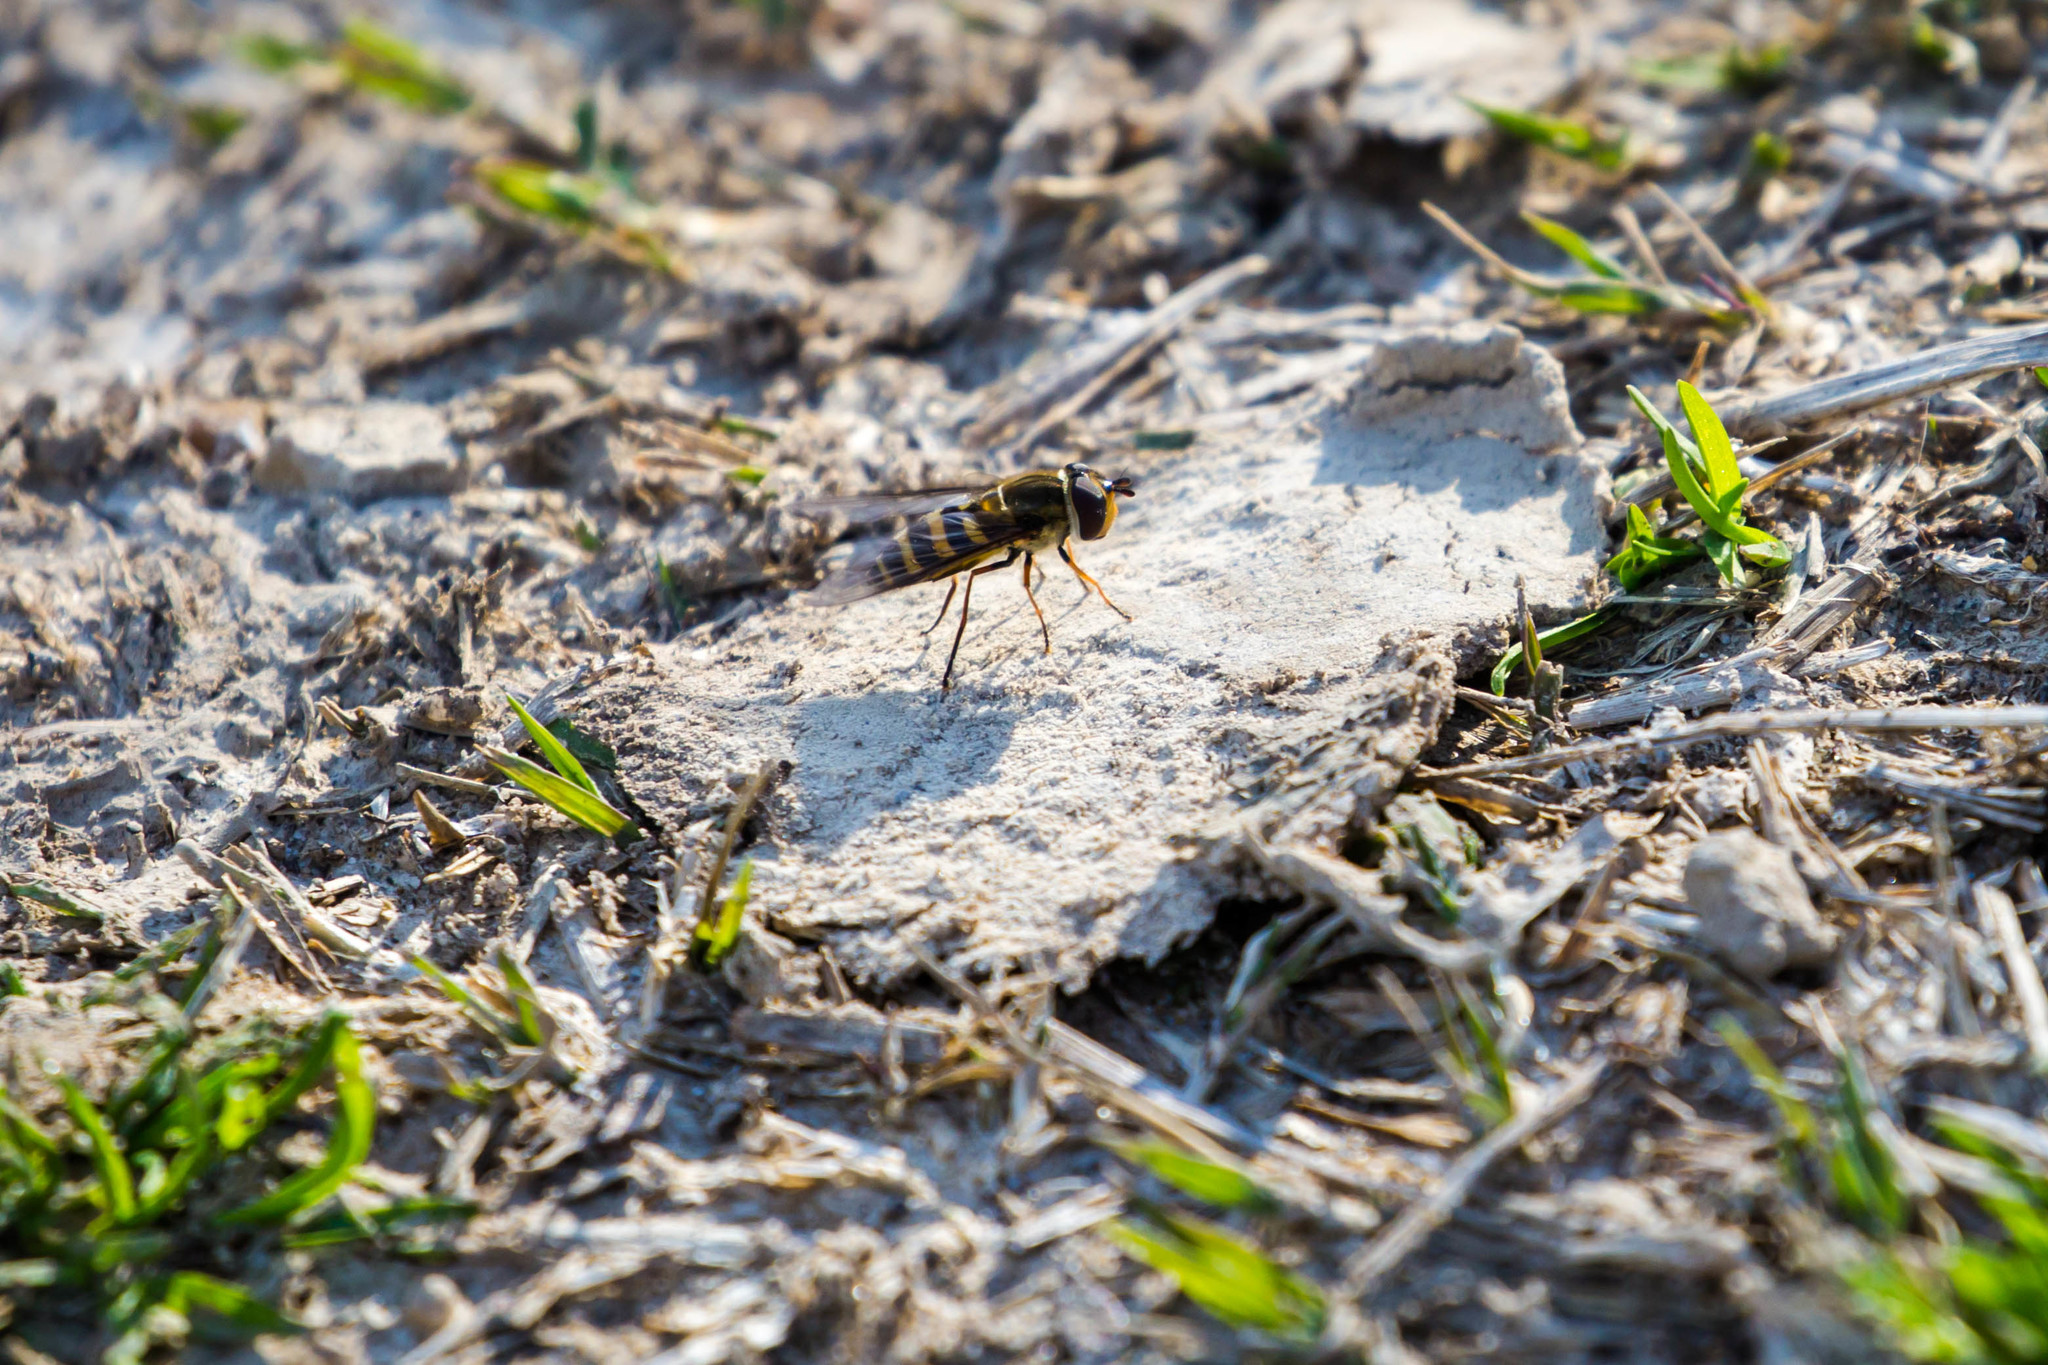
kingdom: Animalia
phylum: Arthropoda
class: Insecta
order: Diptera
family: Syrphidae
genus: Syrphus
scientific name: Syrphus
